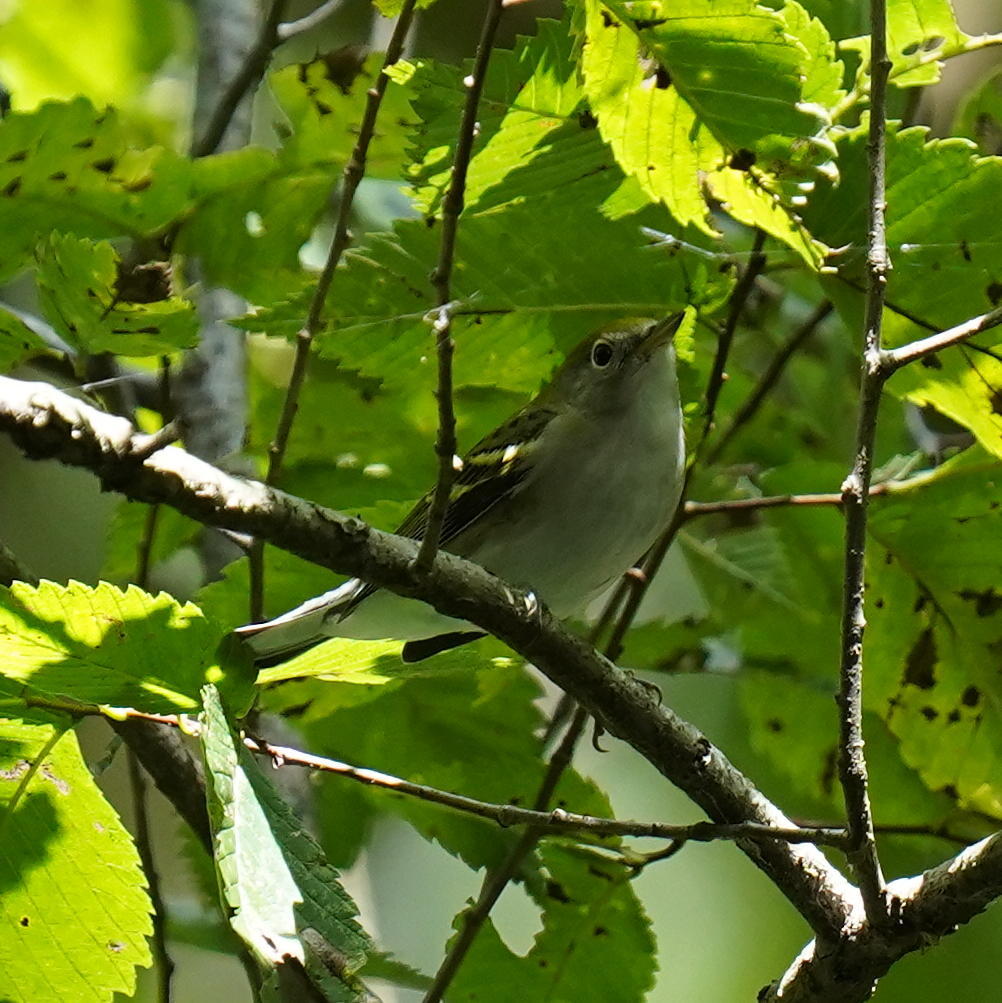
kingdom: Animalia
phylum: Chordata
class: Aves
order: Passeriformes
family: Parulidae
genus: Setophaga
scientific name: Setophaga pensylvanica
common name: Chestnut-sided warbler
